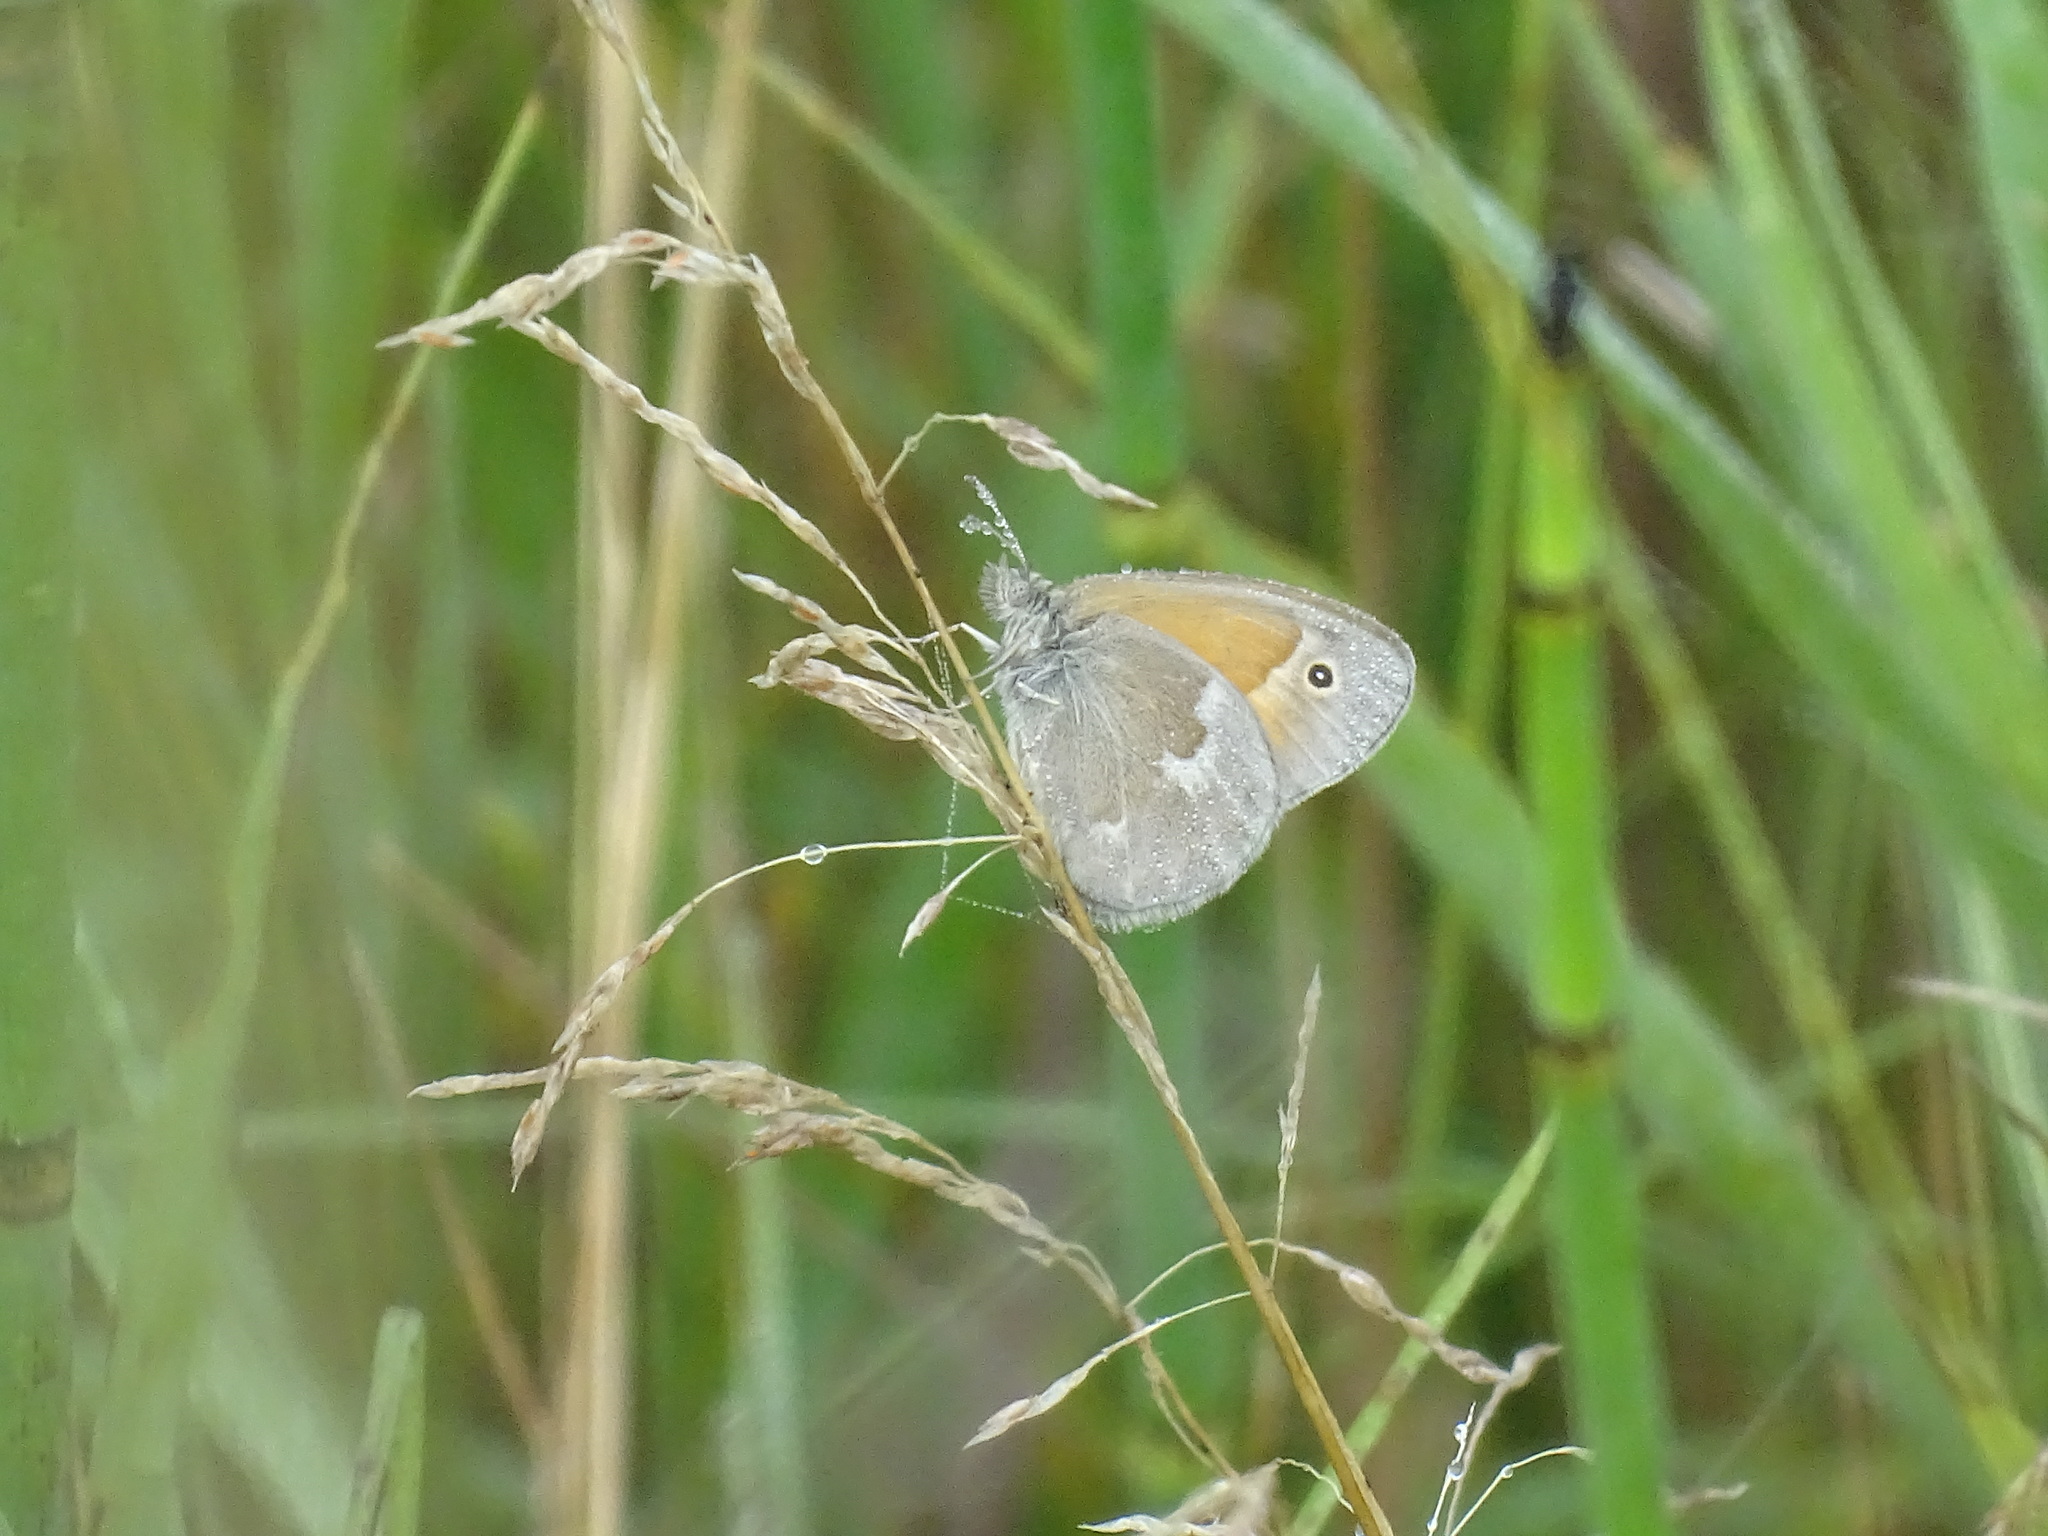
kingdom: Animalia
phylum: Arthropoda
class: Insecta
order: Lepidoptera
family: Nymphalidae
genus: Coenonympha
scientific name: Coenonympha california
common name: Common ringlet
